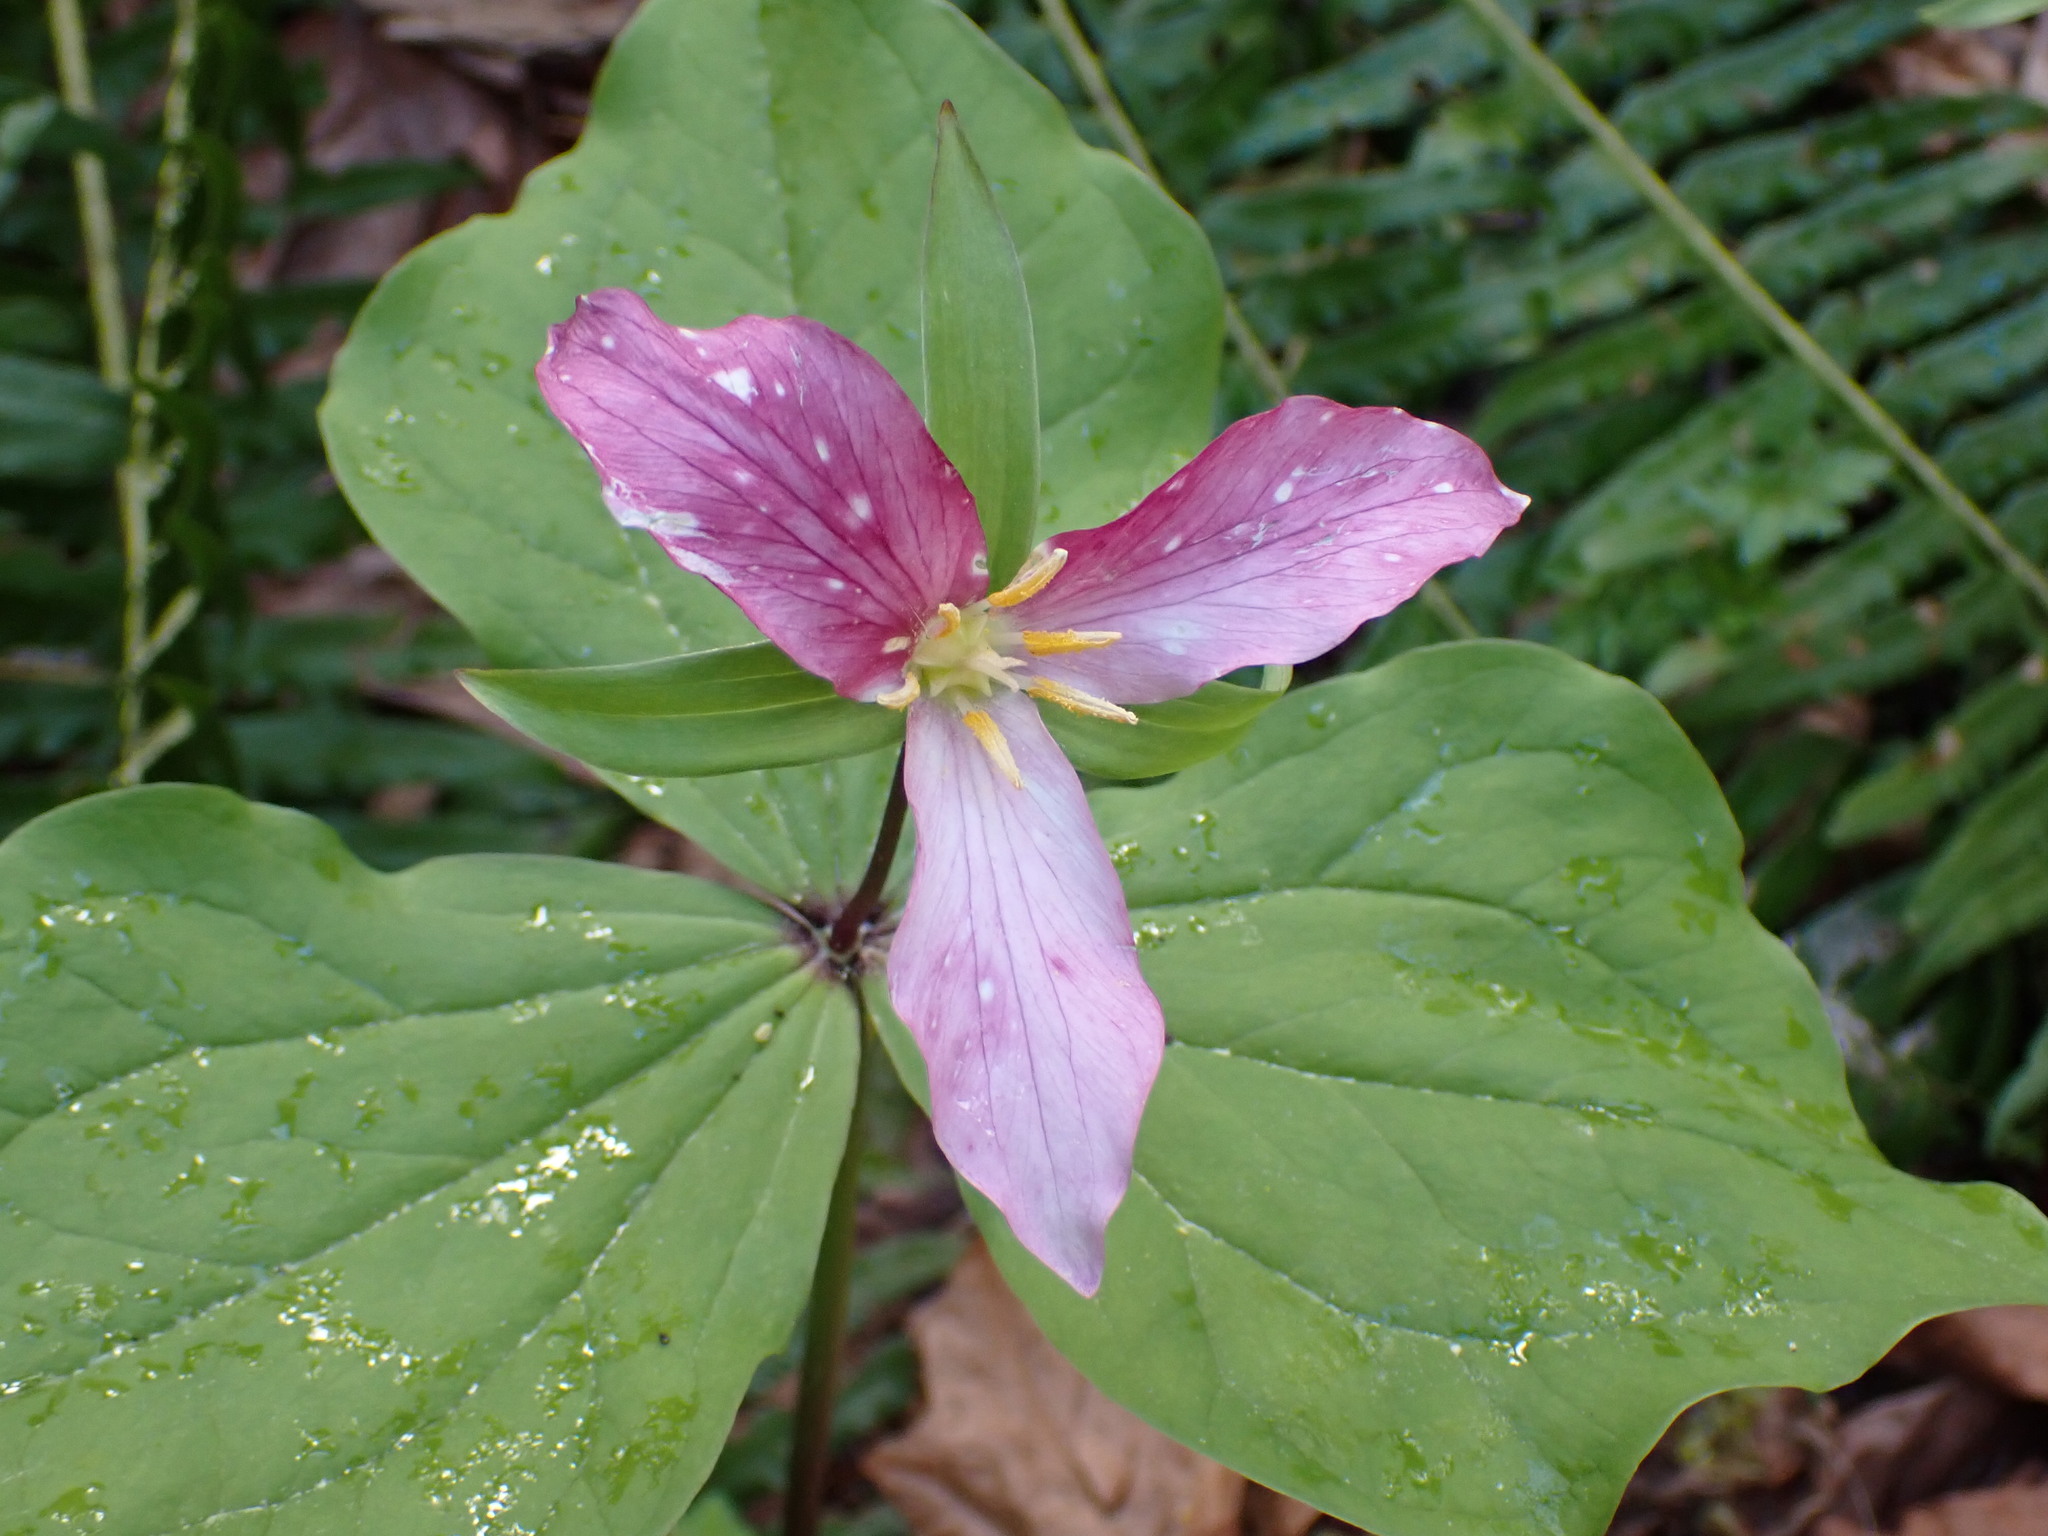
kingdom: Plantae
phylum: Tracheophyta
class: Liliopsida
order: Liliales
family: Melanthiaceae
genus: Trillium
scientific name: Trillium ovatum
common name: Pacific trillium
